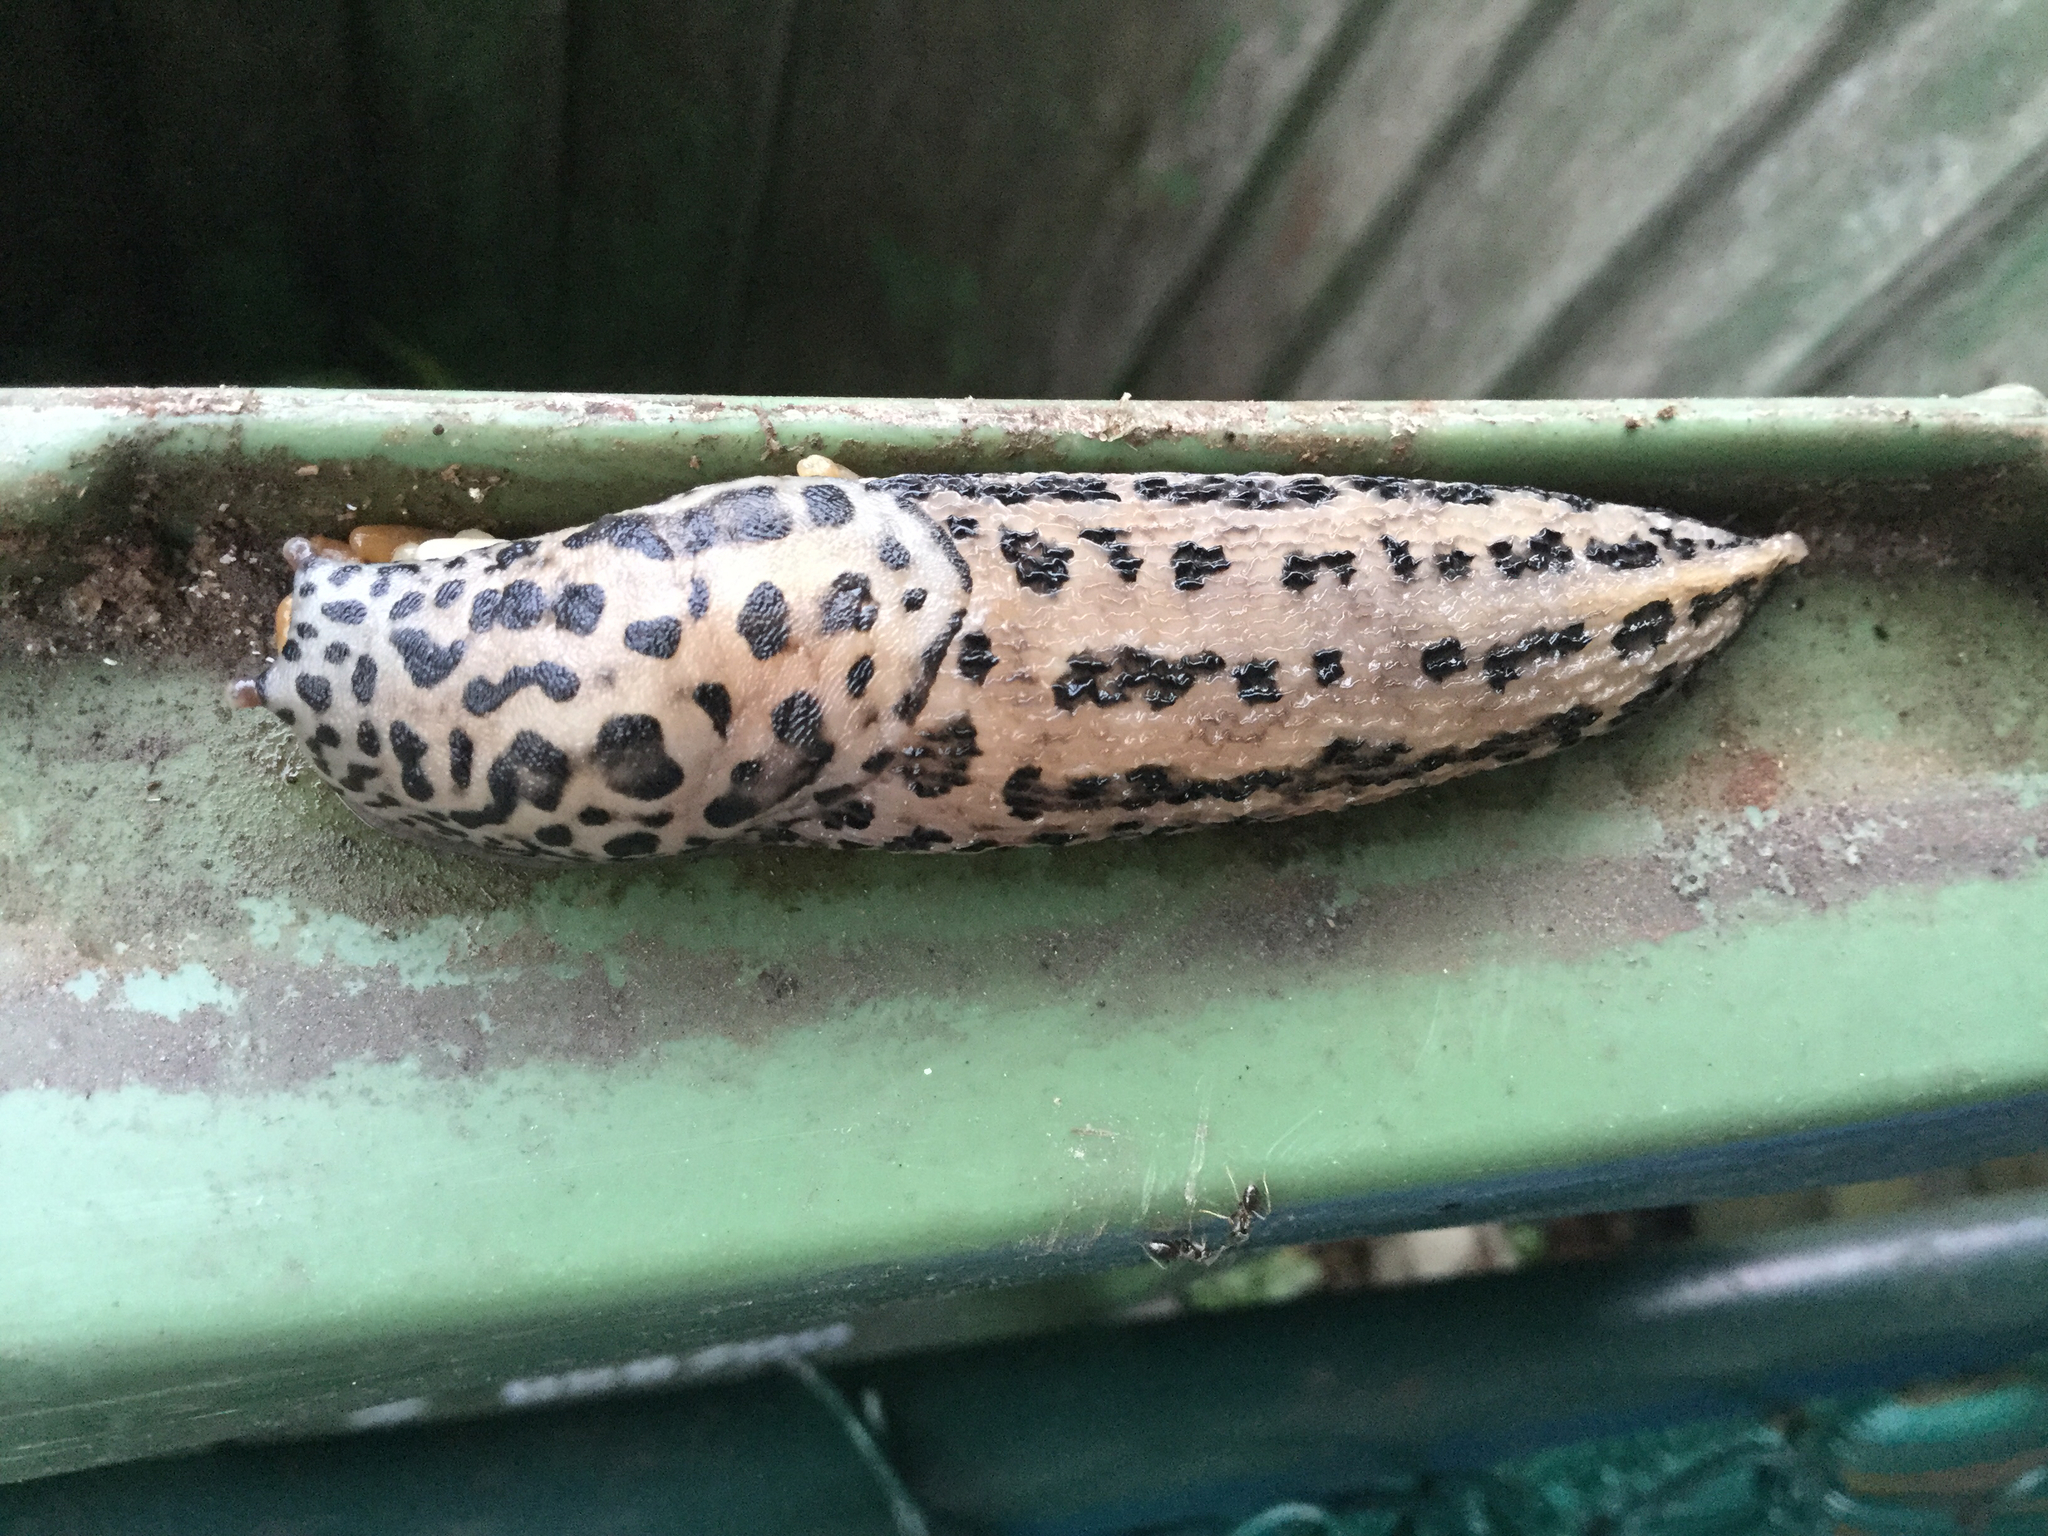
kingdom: Animalia
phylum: Mollusca
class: Gastropoda
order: Stylommatophora
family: Limacidae
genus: Limax
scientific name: Limax maximus
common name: Great grey slug
